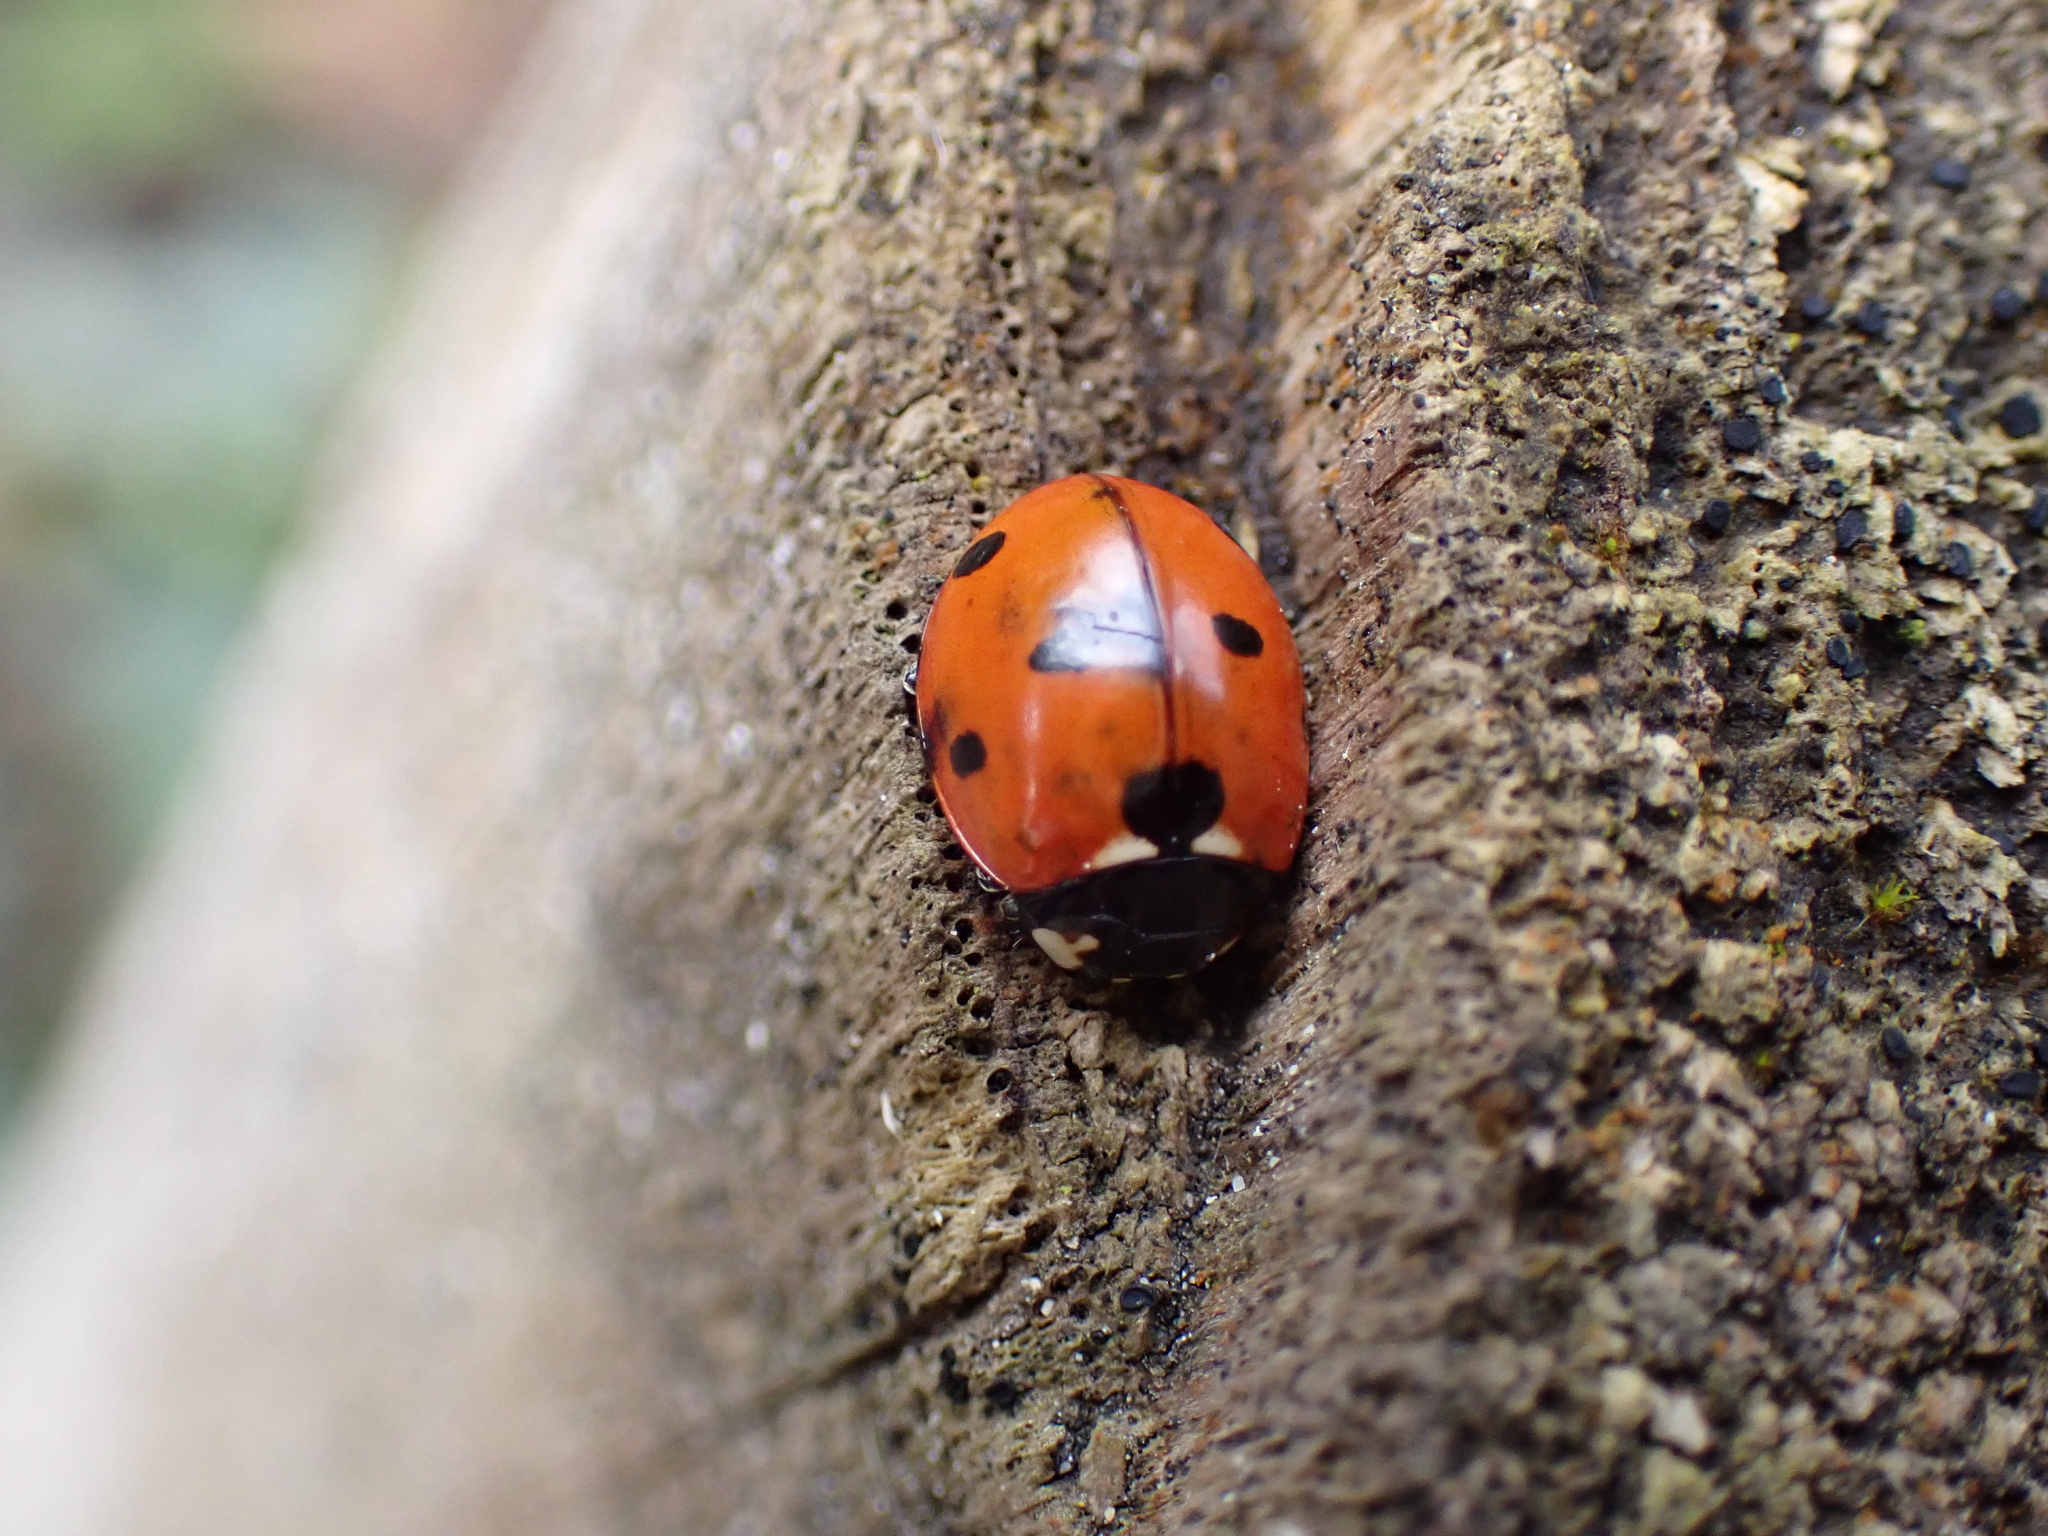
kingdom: Animalia
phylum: Arthropoda
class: Insecta
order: Coleoptera
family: Coccinellidae
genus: Coccinella
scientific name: Coccinella septempunctata
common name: Sevenspotted lady beetle
